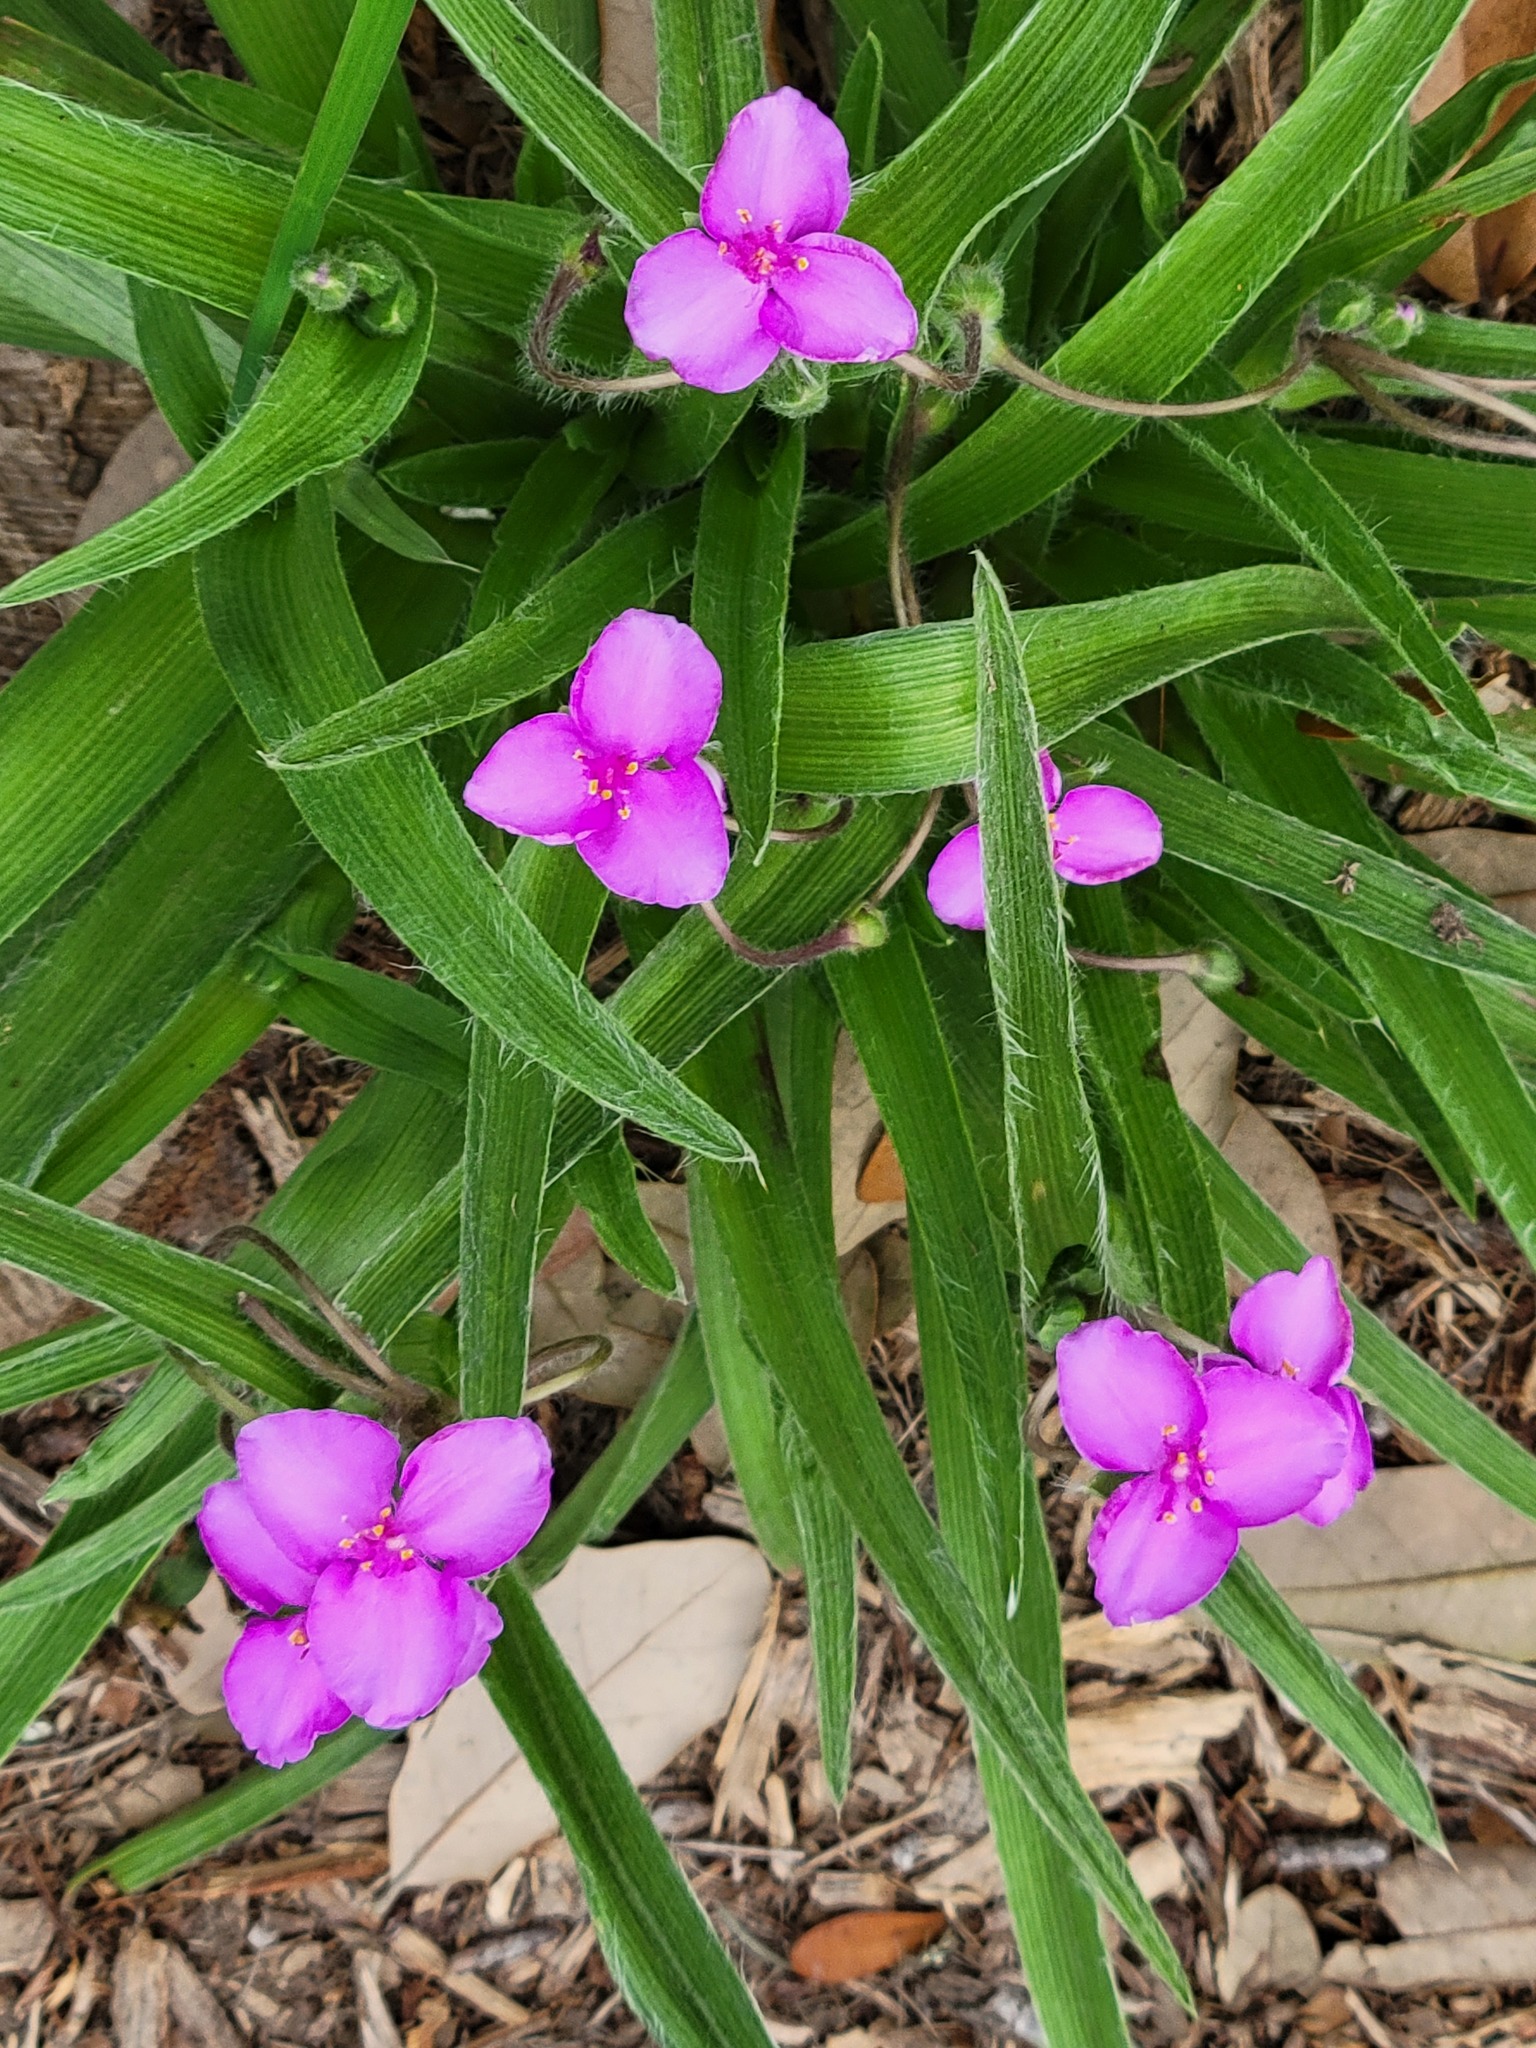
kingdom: Plantae
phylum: Tracheophyta
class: Liliopsida
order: Commelinales
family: Commelinaceae
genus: Tradescantia
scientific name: Tradescantia hirsutiflora
